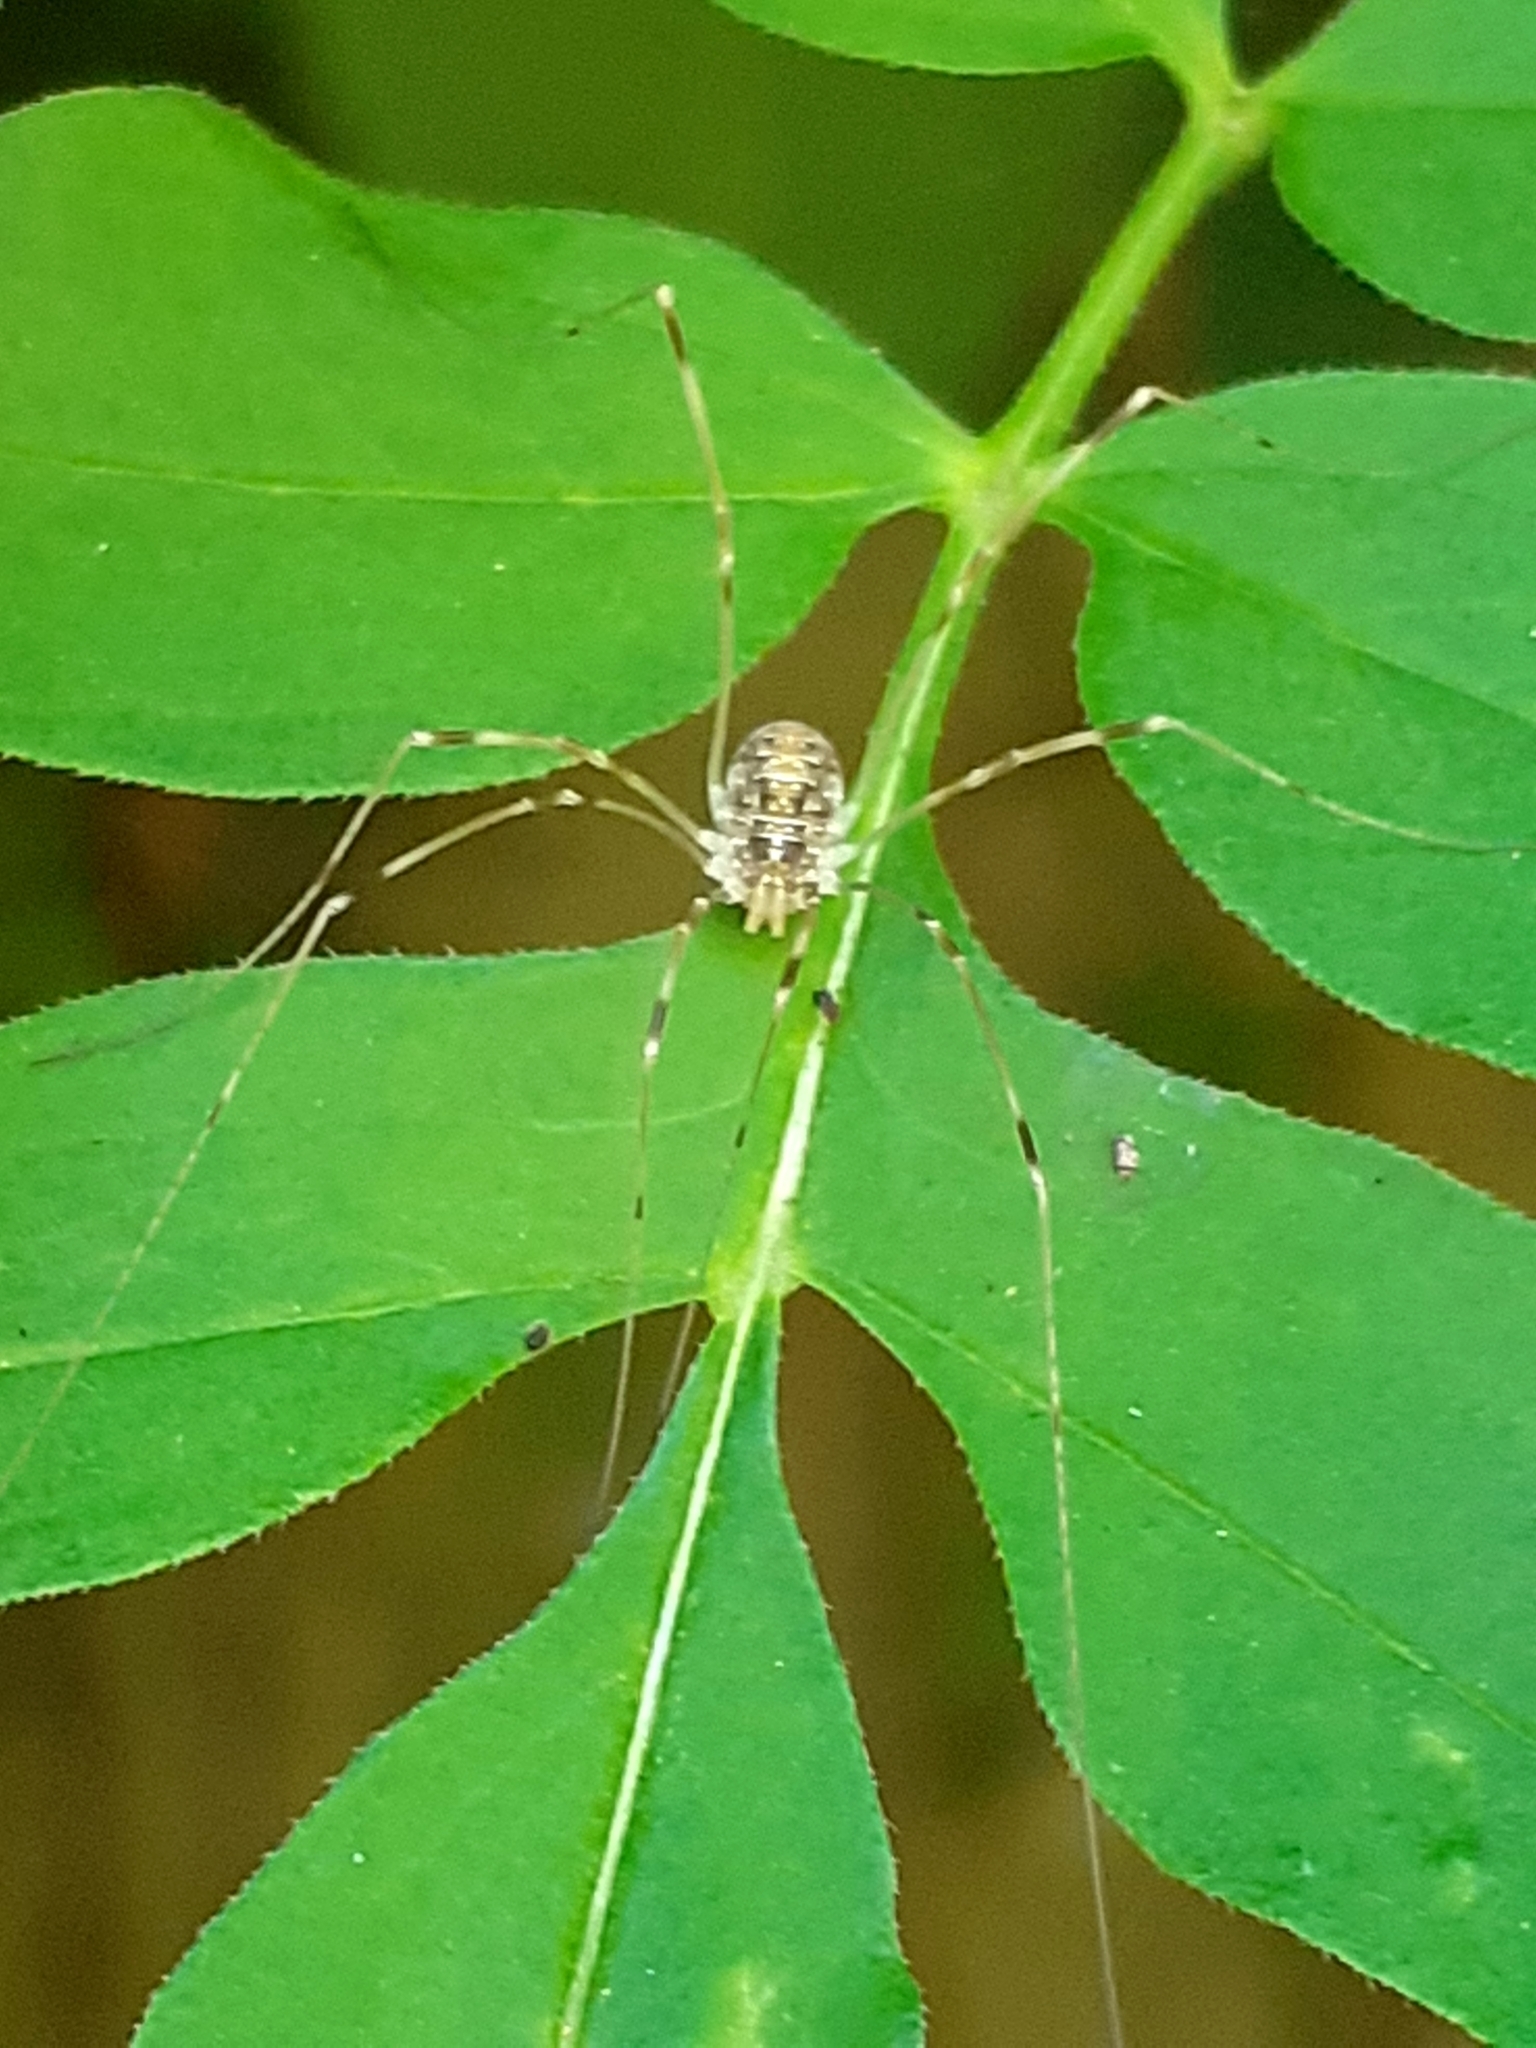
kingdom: Animalia
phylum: Arthropoda
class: Arachnida
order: Opiliones
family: Phalangiidae
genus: Opilio
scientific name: Opilio canestrinii
